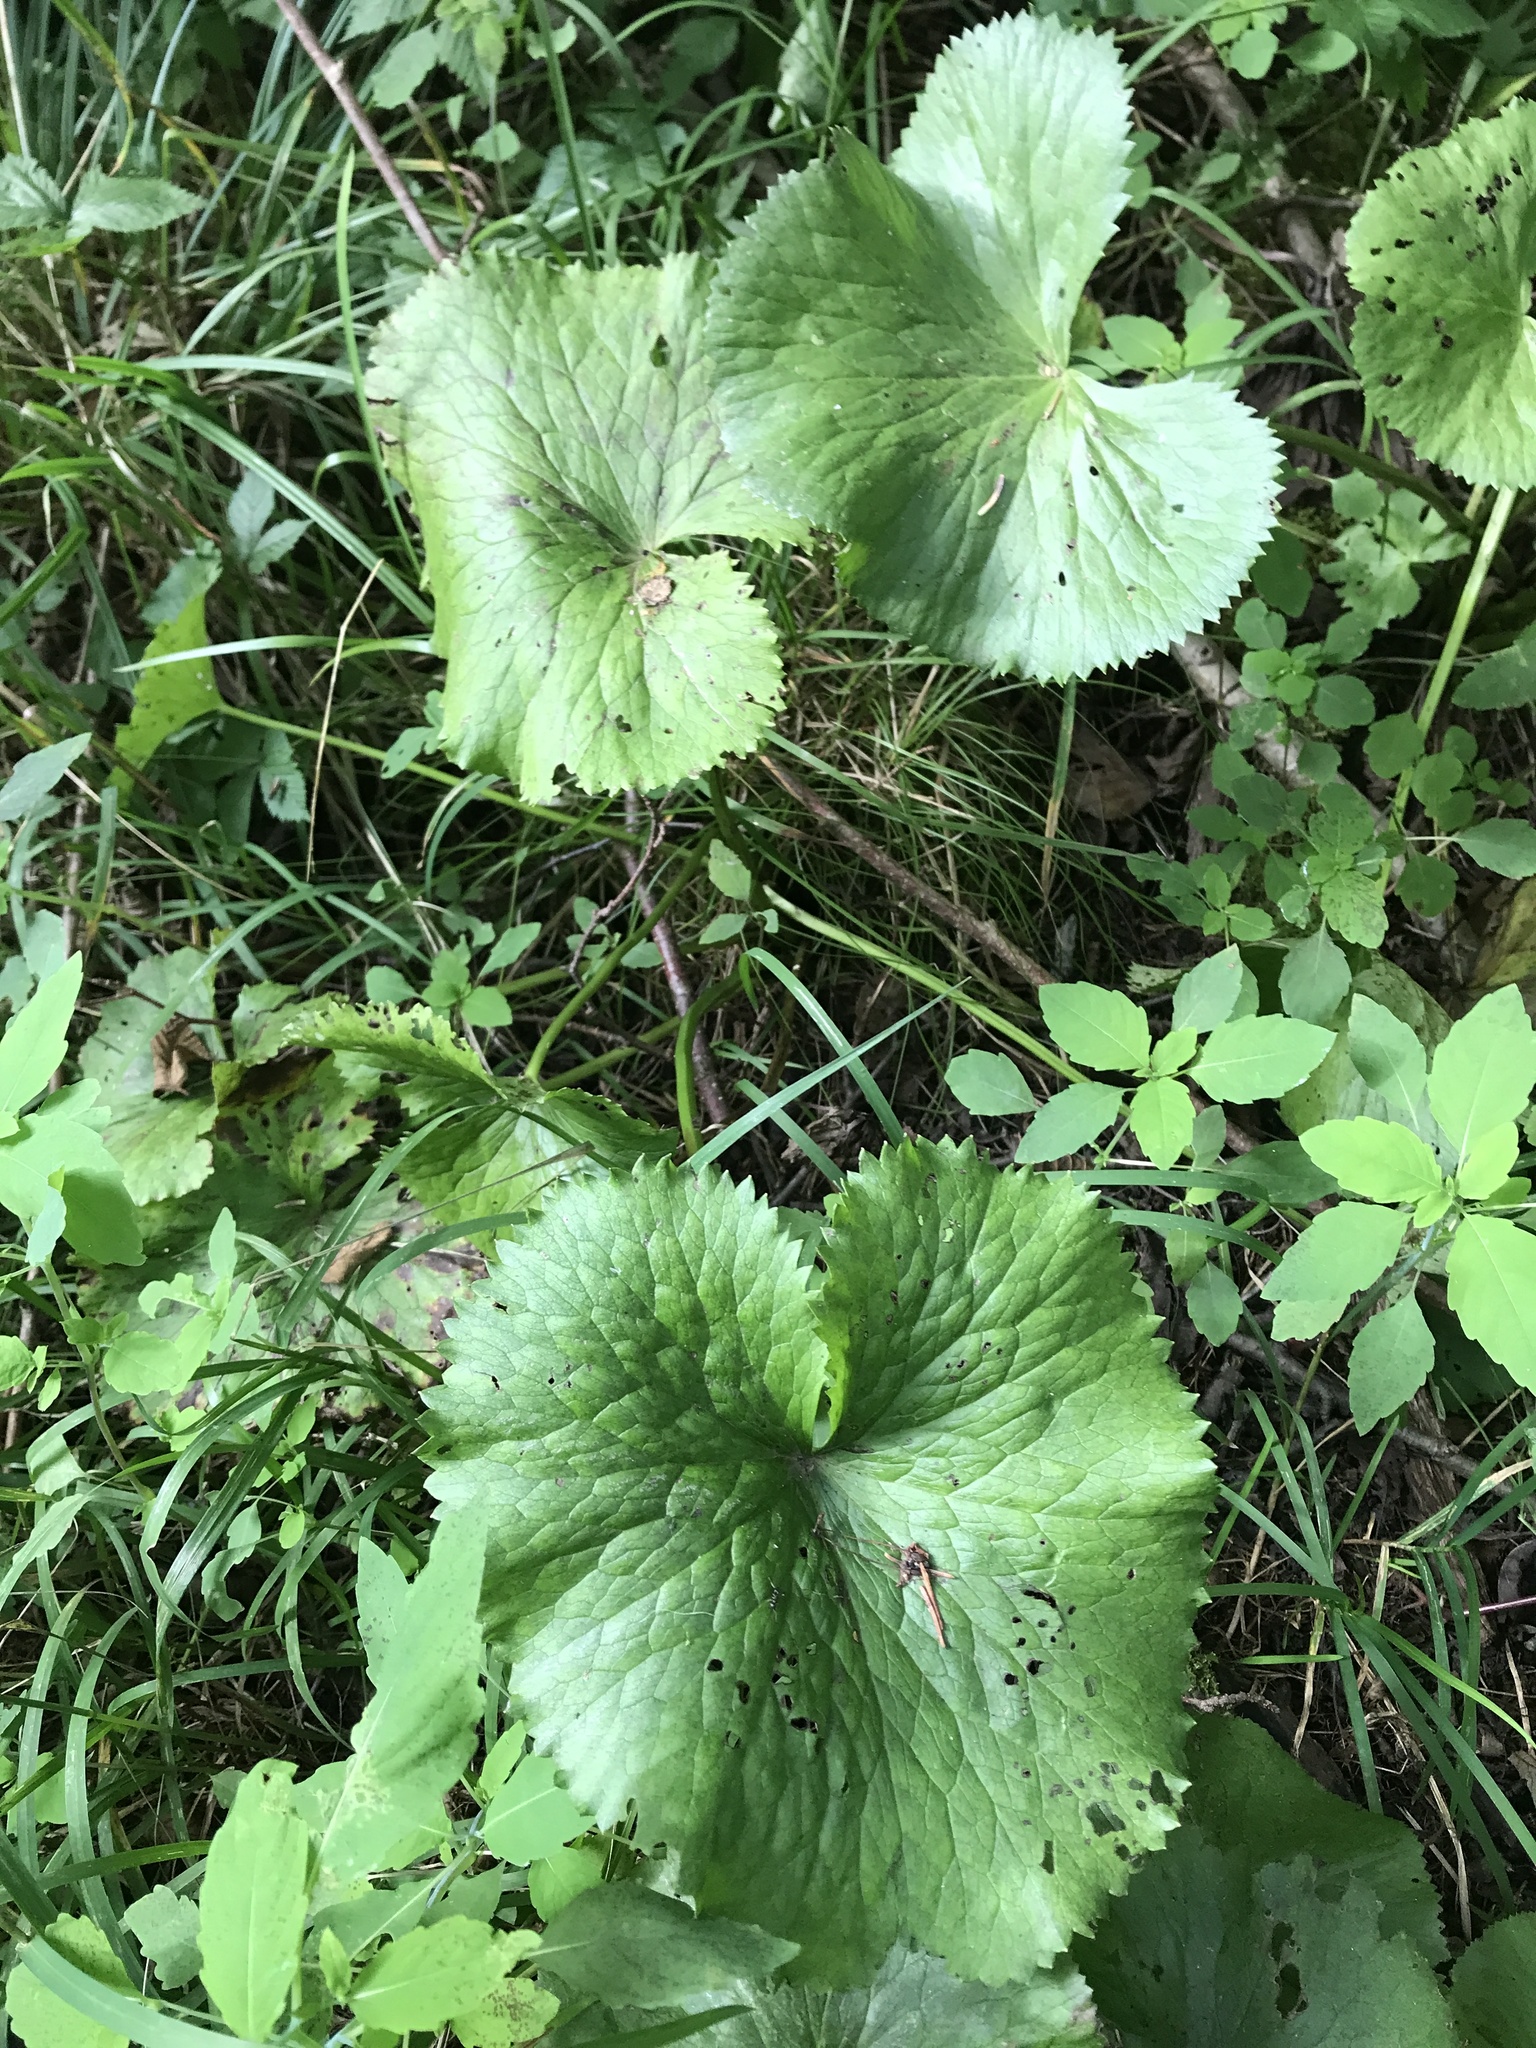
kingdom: Plantae
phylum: Tracheophyta
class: Magnoliopsida
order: Ranunculales
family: Ranunculaceae
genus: Caltha
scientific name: Caltha palustris
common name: Marsh marigold
